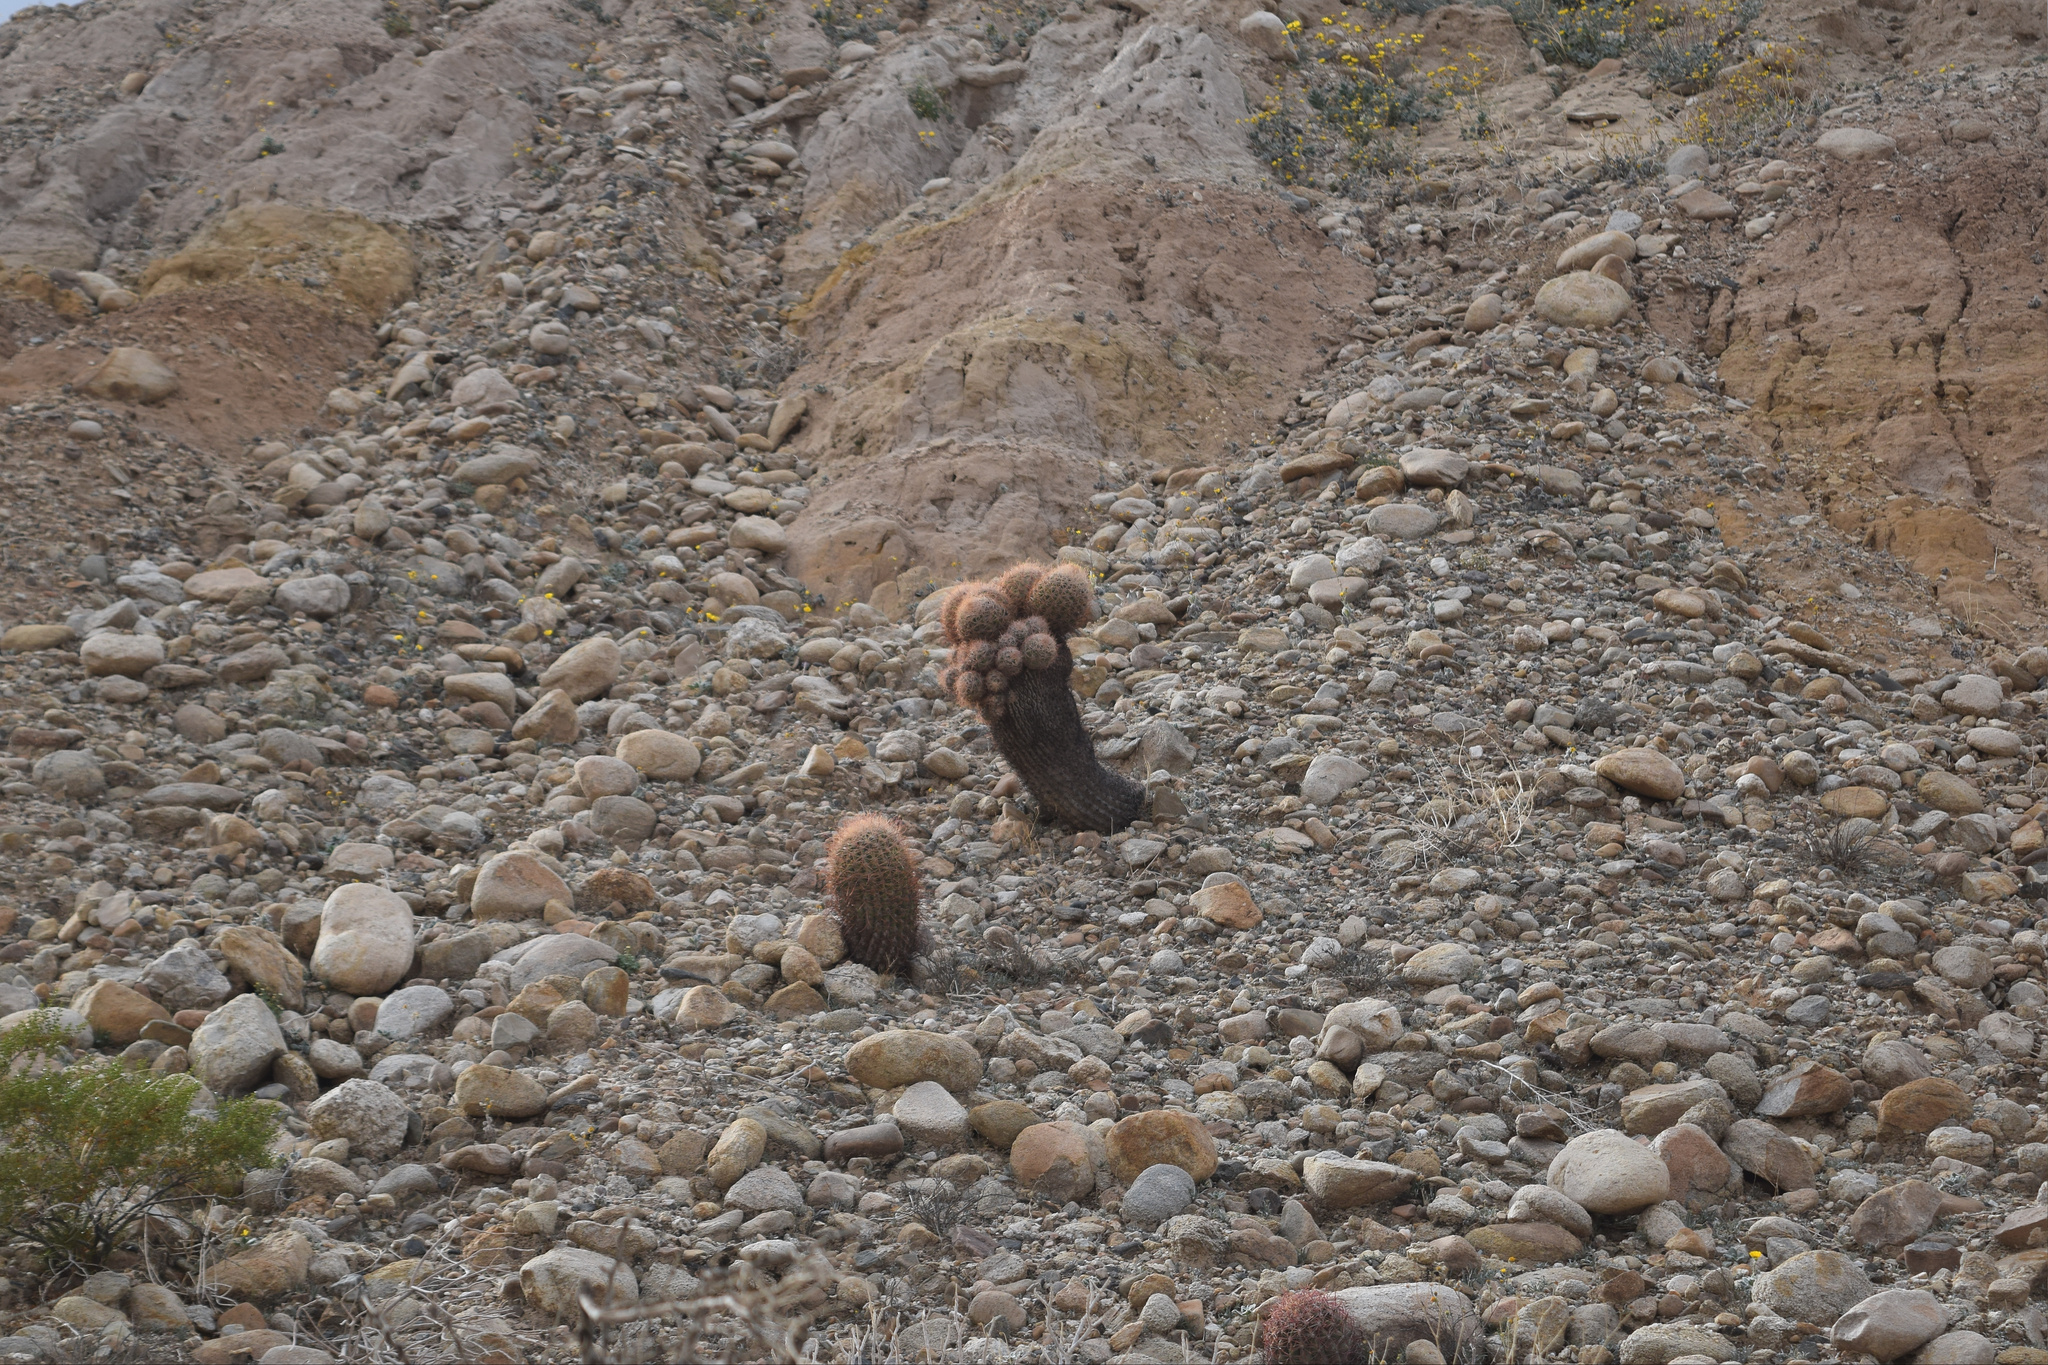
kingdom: Plantae
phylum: Tracheophyta
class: Magnoliopsida
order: Caryophyllales
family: Cactaceae
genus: Ferocactus
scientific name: Ferocactus cylindraceus
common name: California barrel cactus
